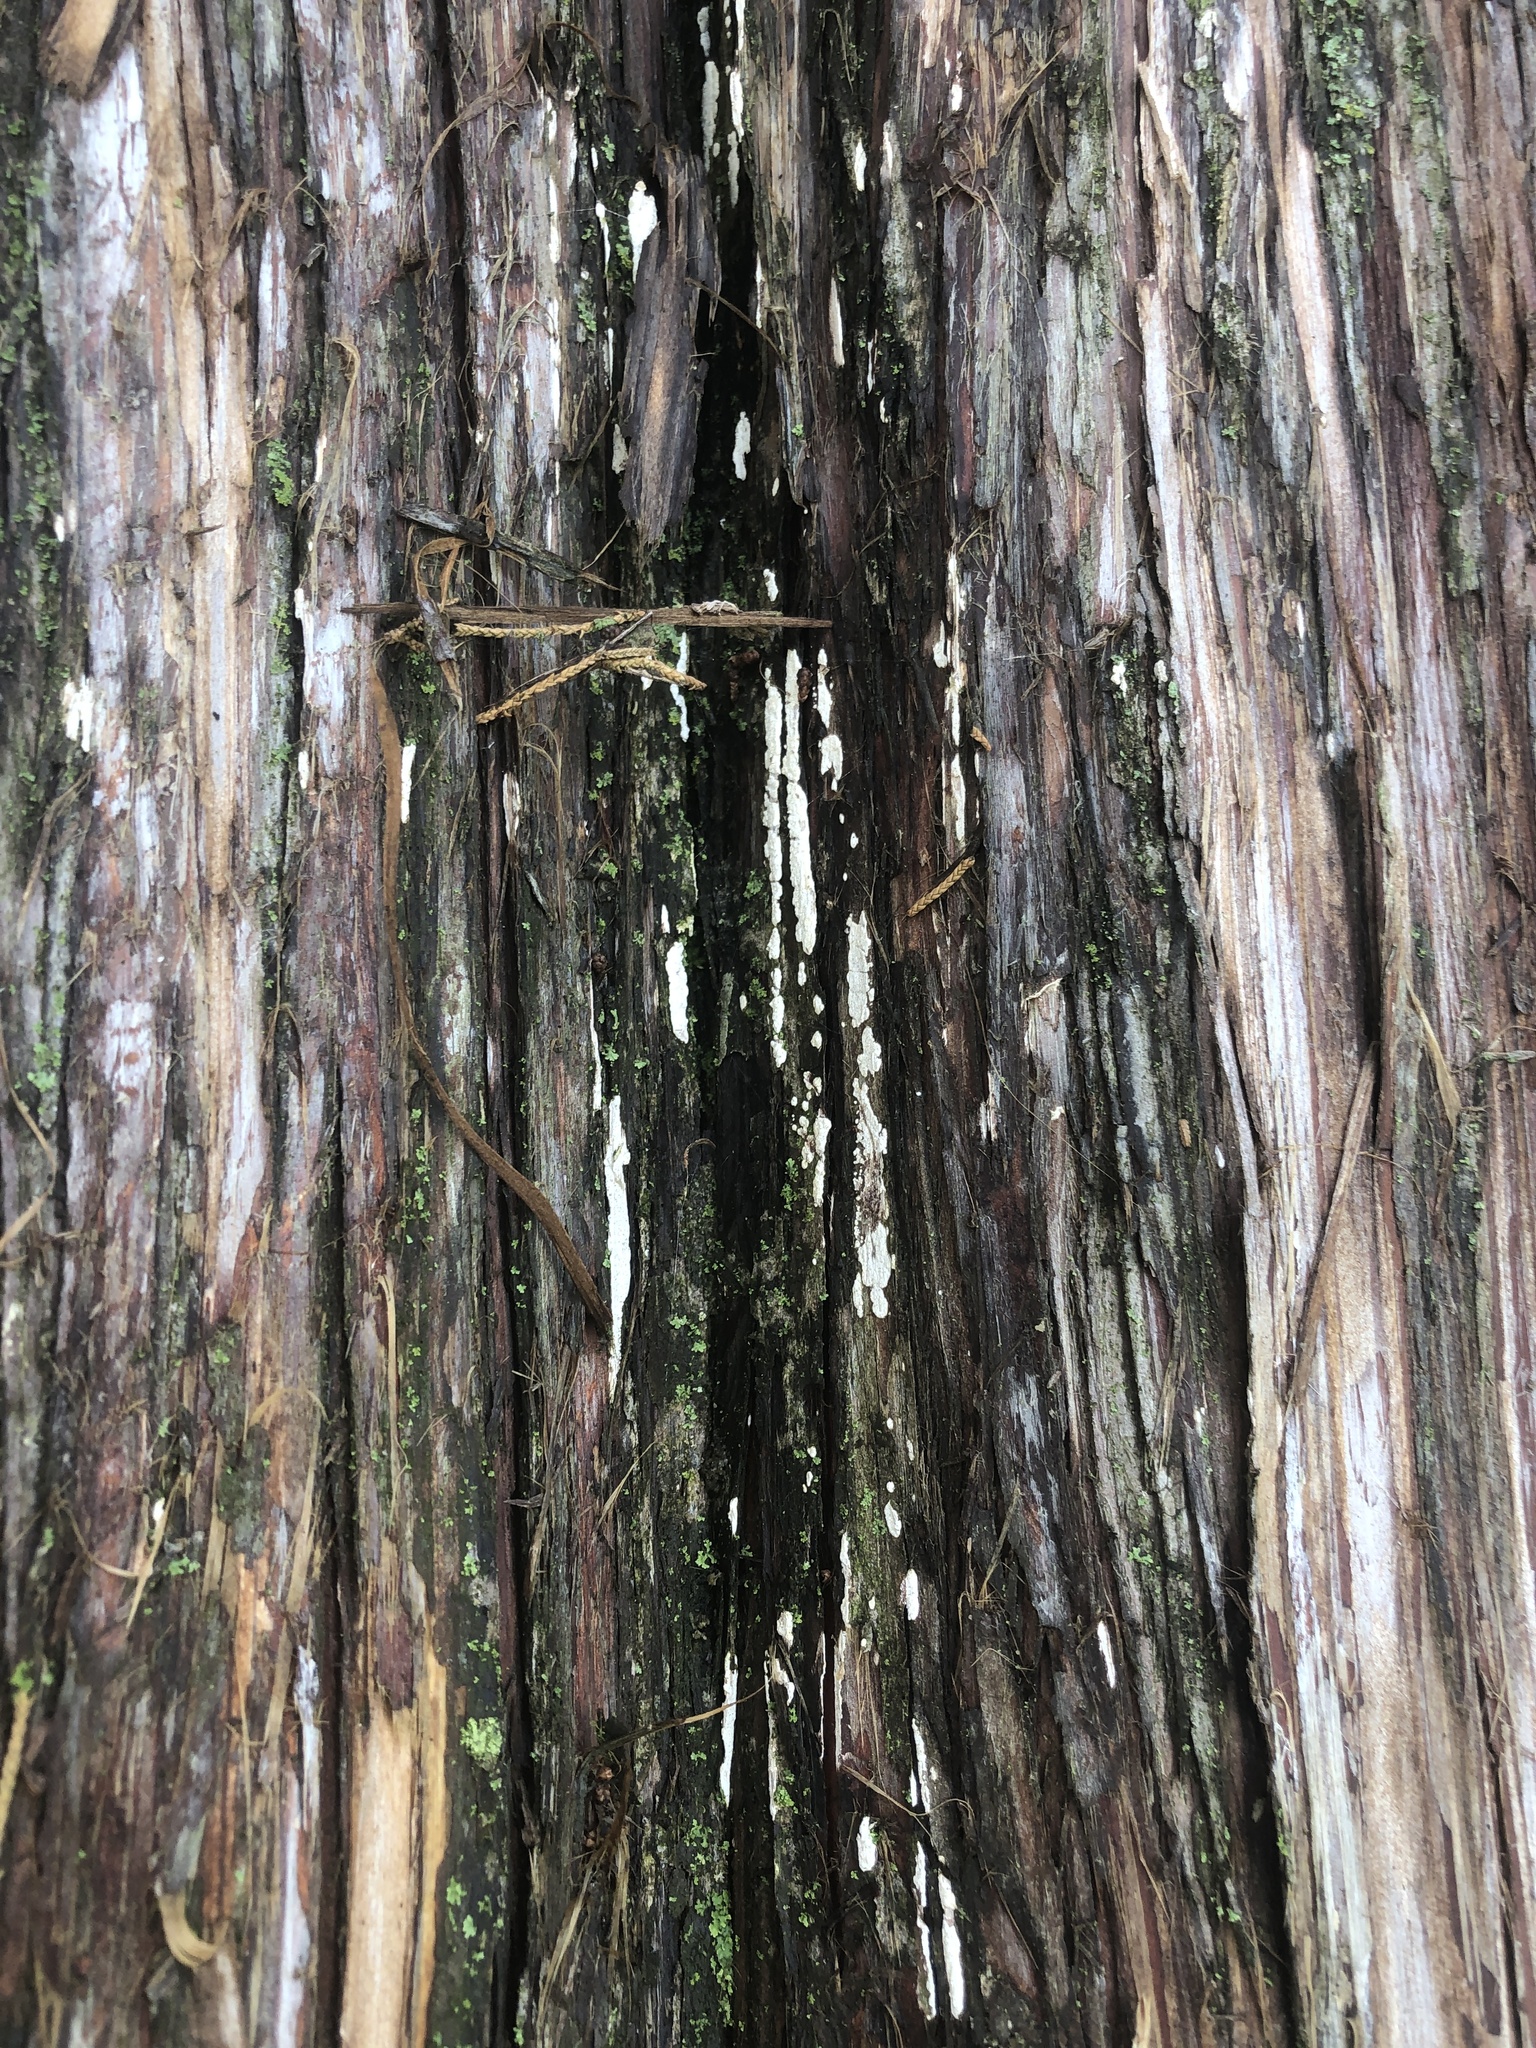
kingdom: Fungi
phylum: Basidiomycota
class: Agaricomycetes
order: Agaricales
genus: Dendrothele
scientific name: Dendrothele nivosa
